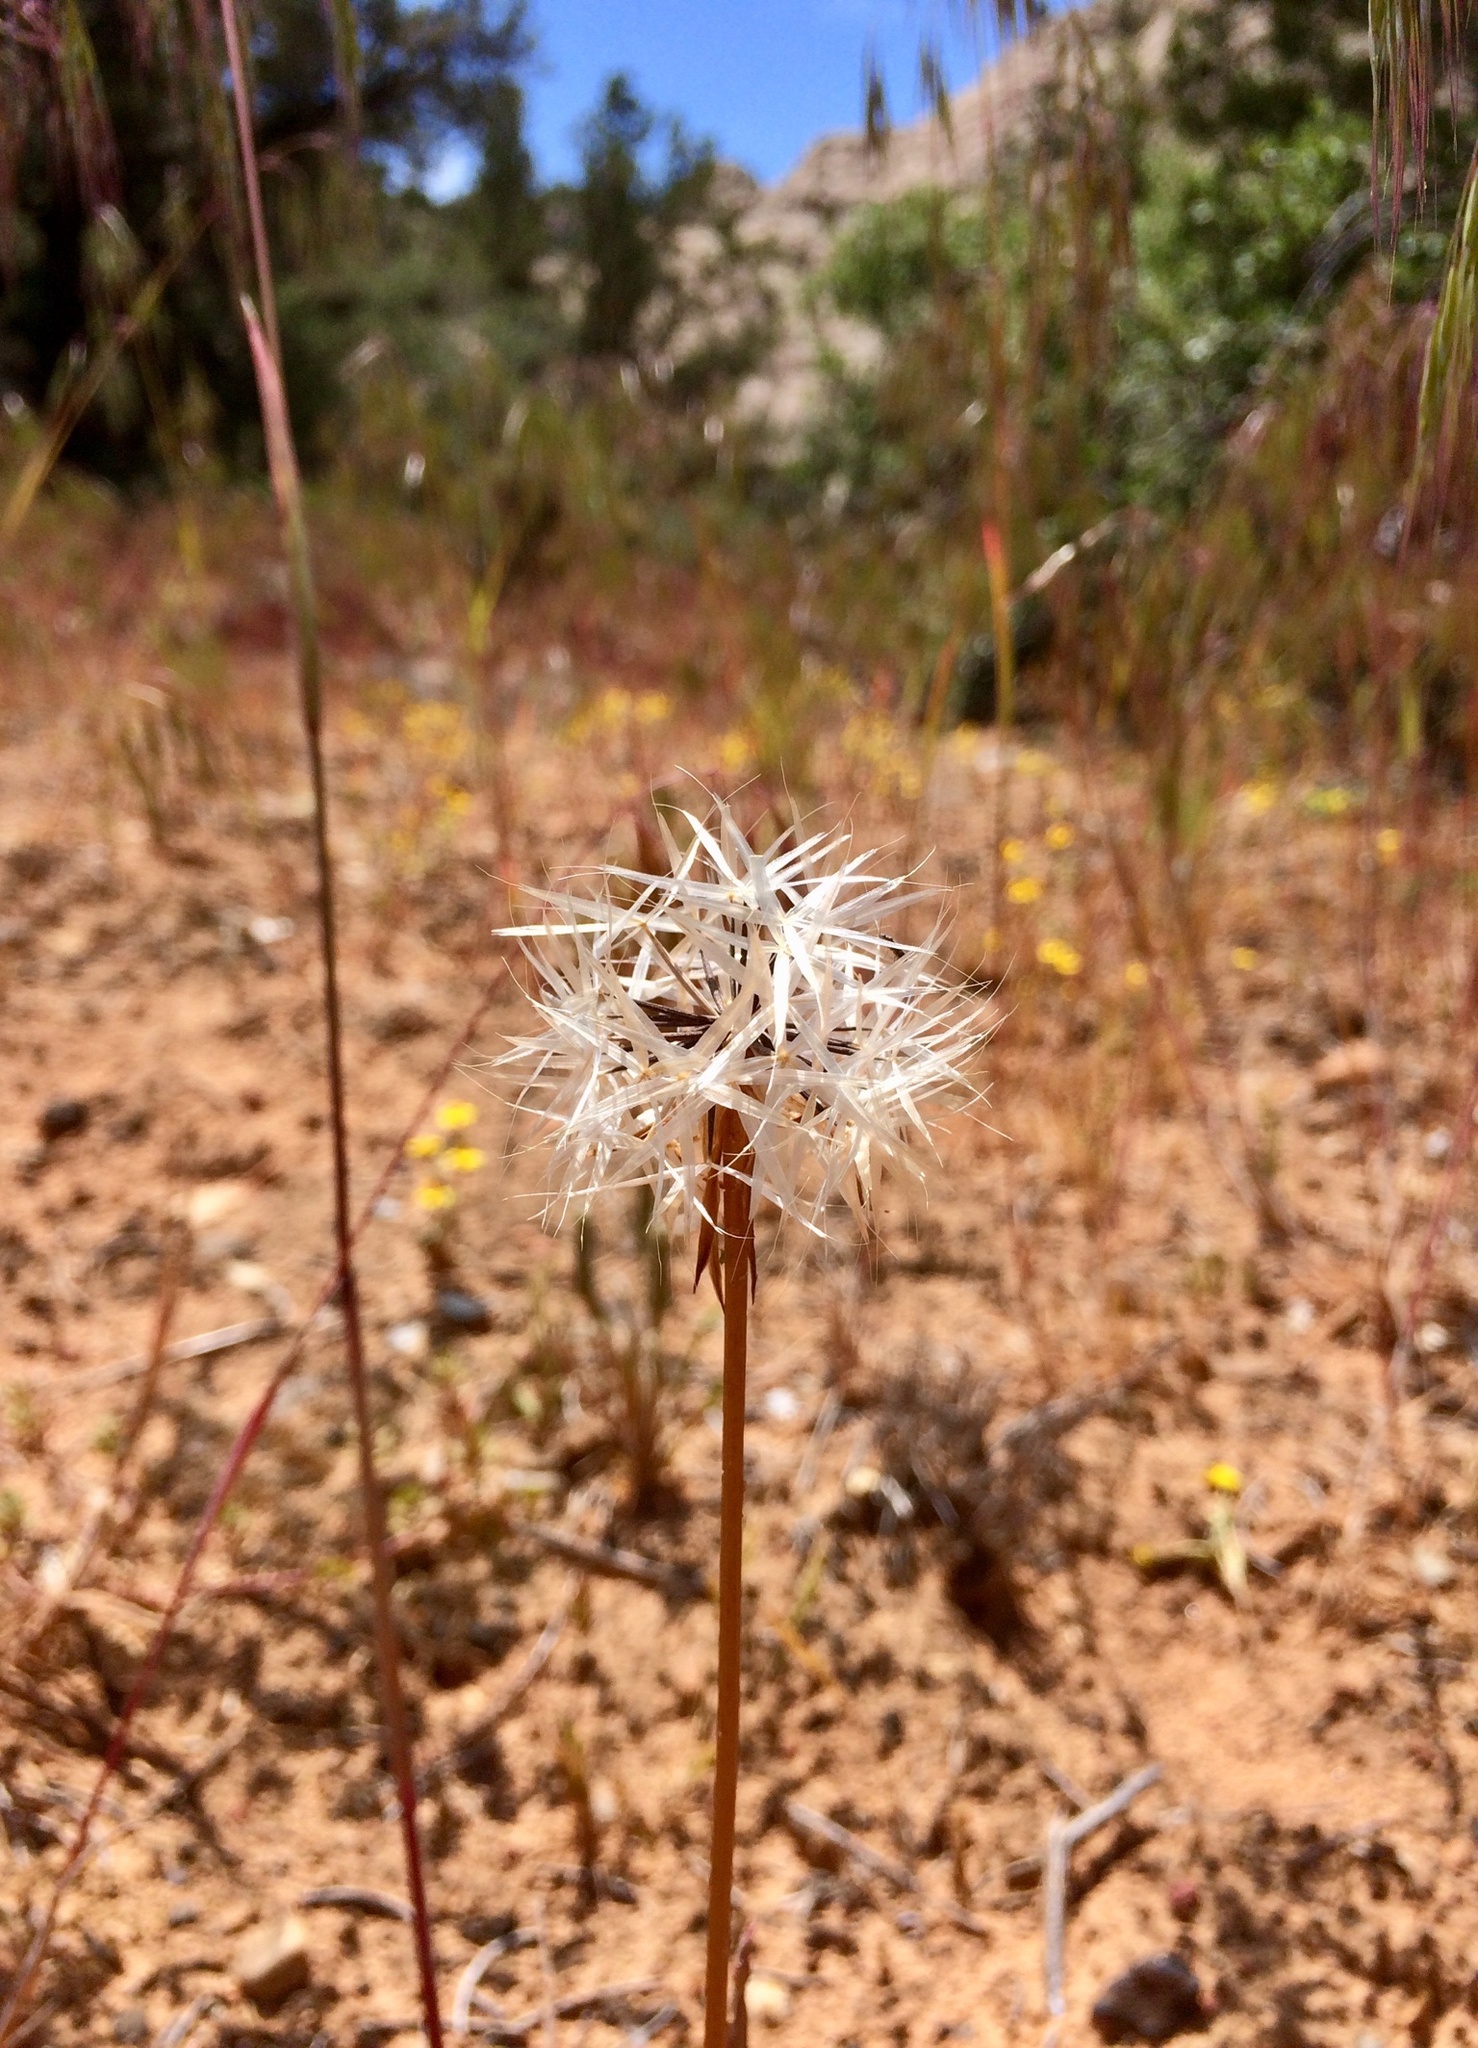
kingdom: Plantae
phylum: Tracheophyta
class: Magnoliopsida
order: Asterales
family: Asteraceae
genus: Microseris
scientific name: Microseris lindleyi
